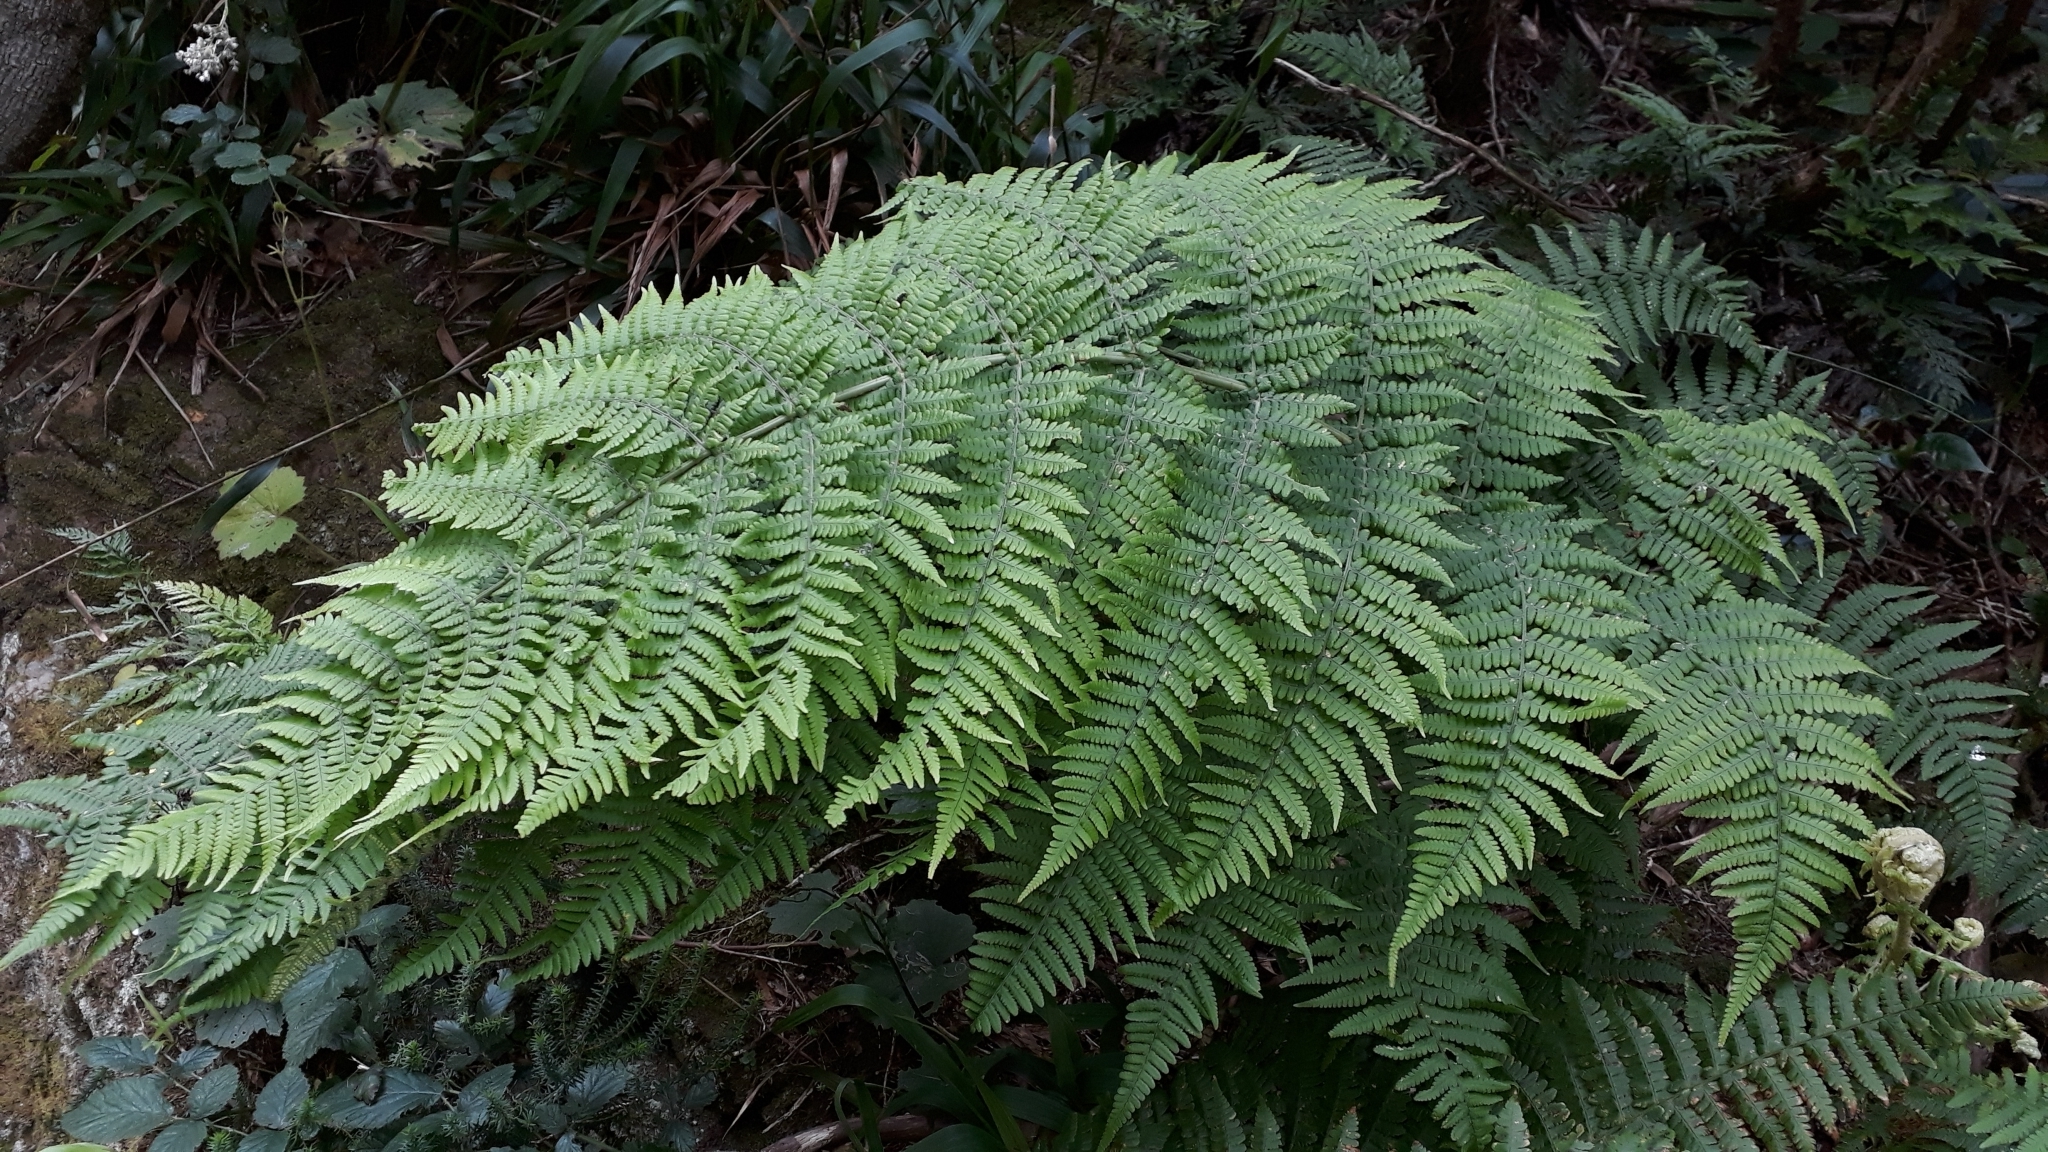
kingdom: Plantae
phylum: Tracheophyta
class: Polypodiopsida
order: Polypodiales
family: Dryopteridaceae
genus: Dryopteris
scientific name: Dryopteris oligodonta
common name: Canarian male-fern
